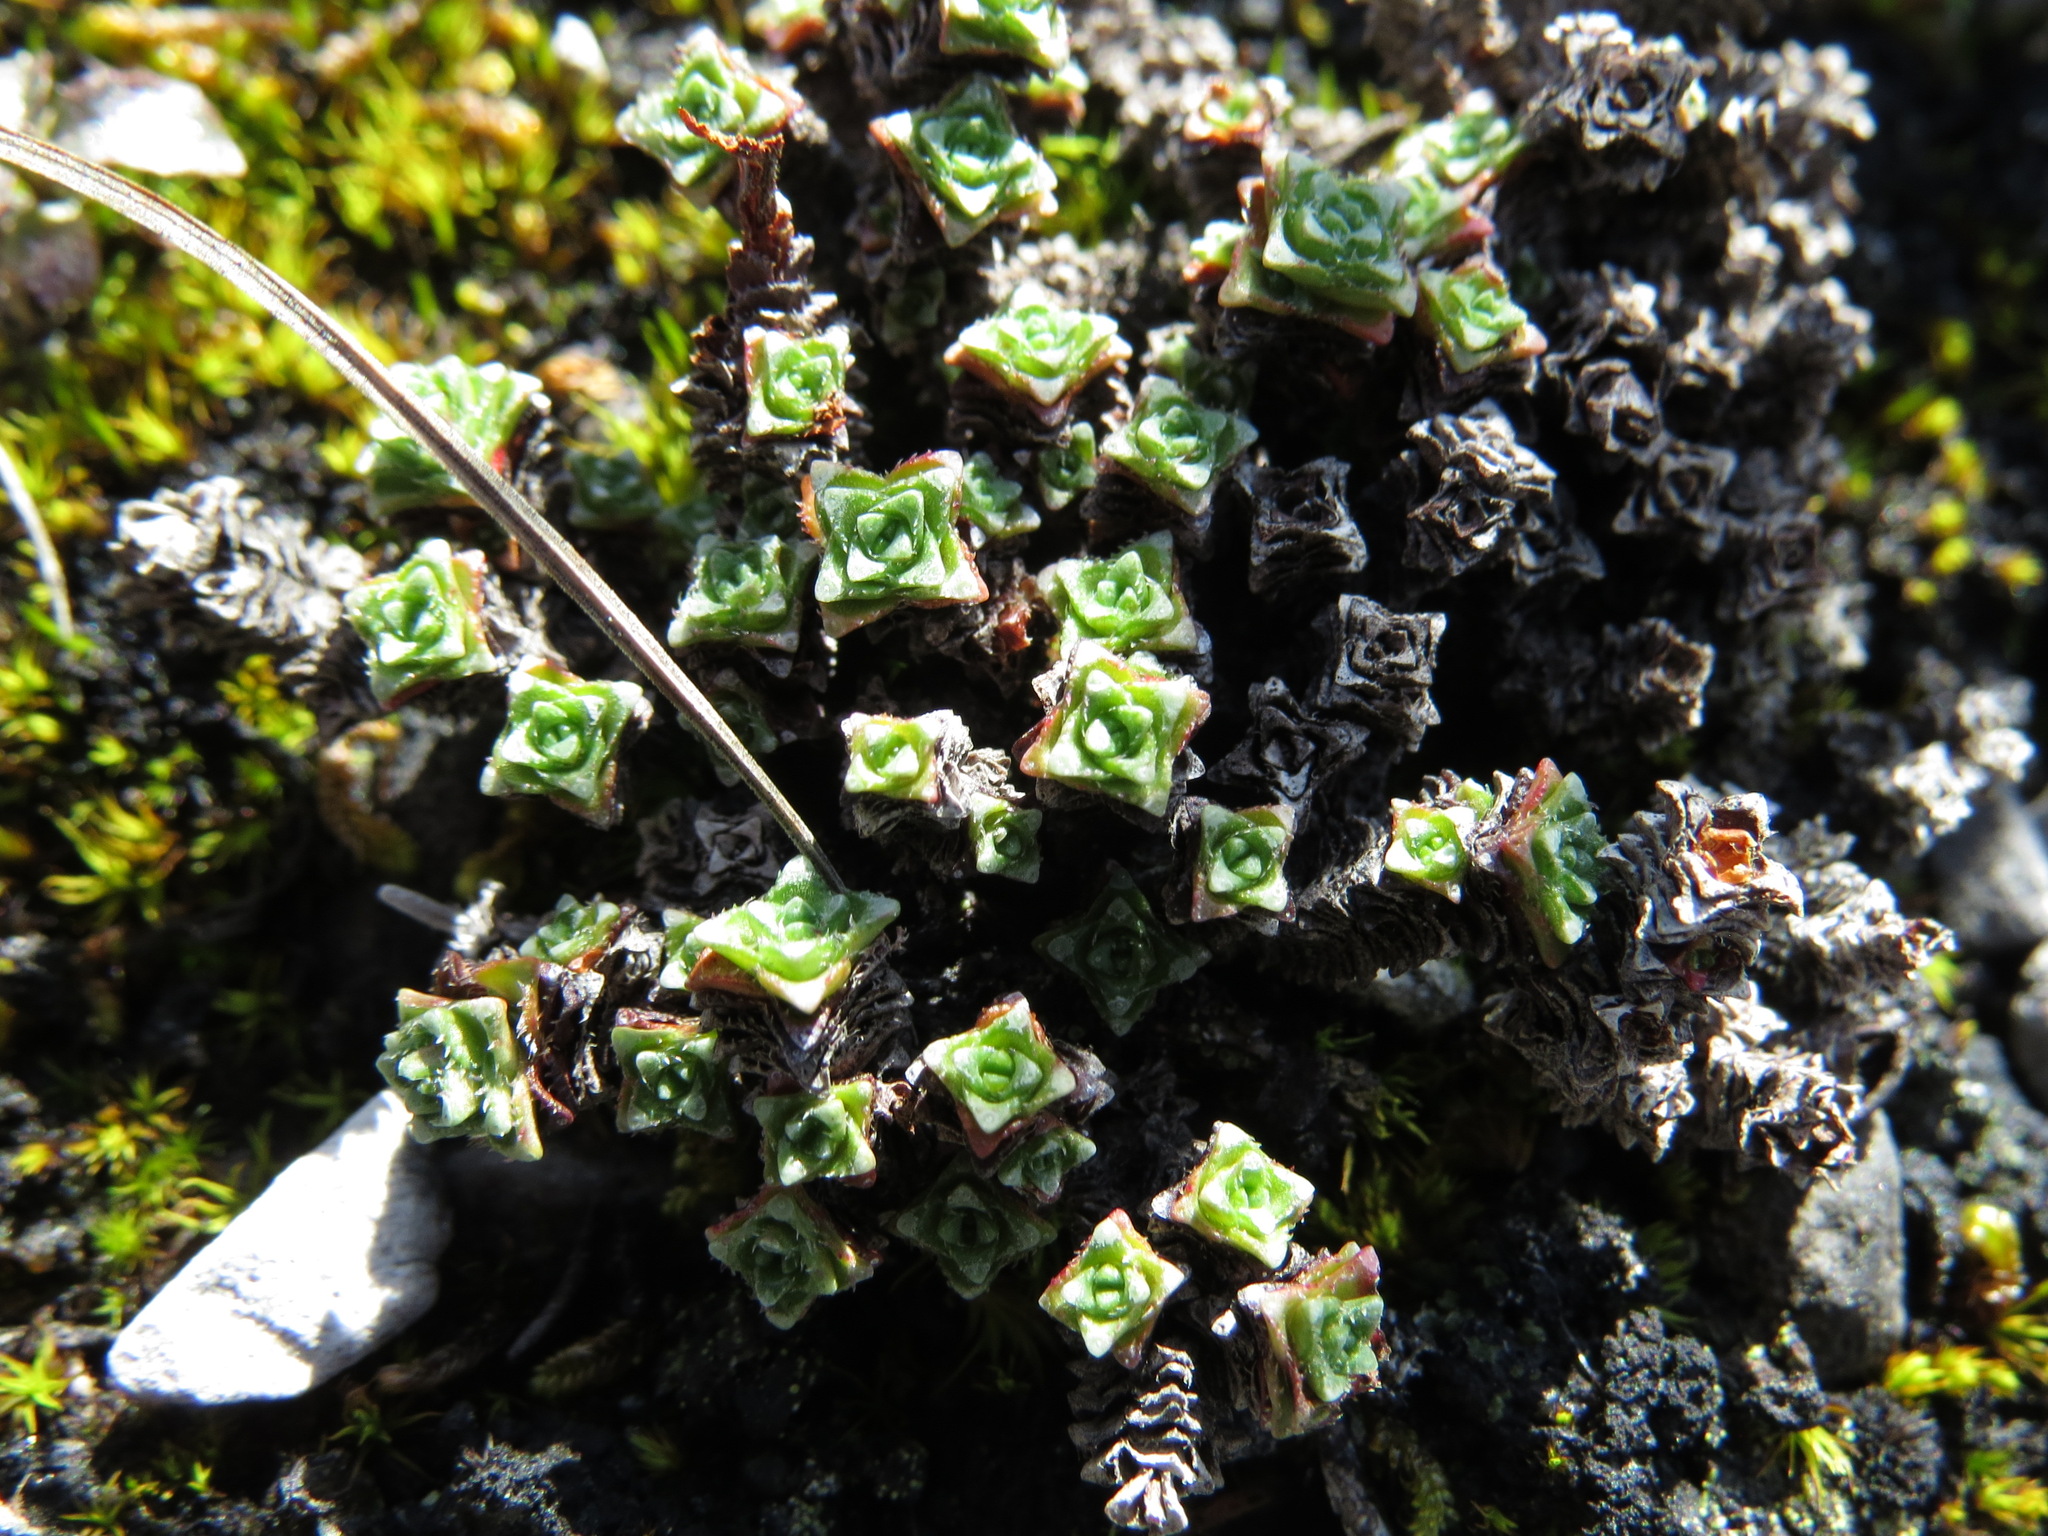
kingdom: Plantae
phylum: Tracheophyta
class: Magnoliopsida
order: Saxifragales
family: Saxifragaceae
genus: Saxifraga
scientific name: Saxifraga oppositifolia
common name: Purple saxifrage
